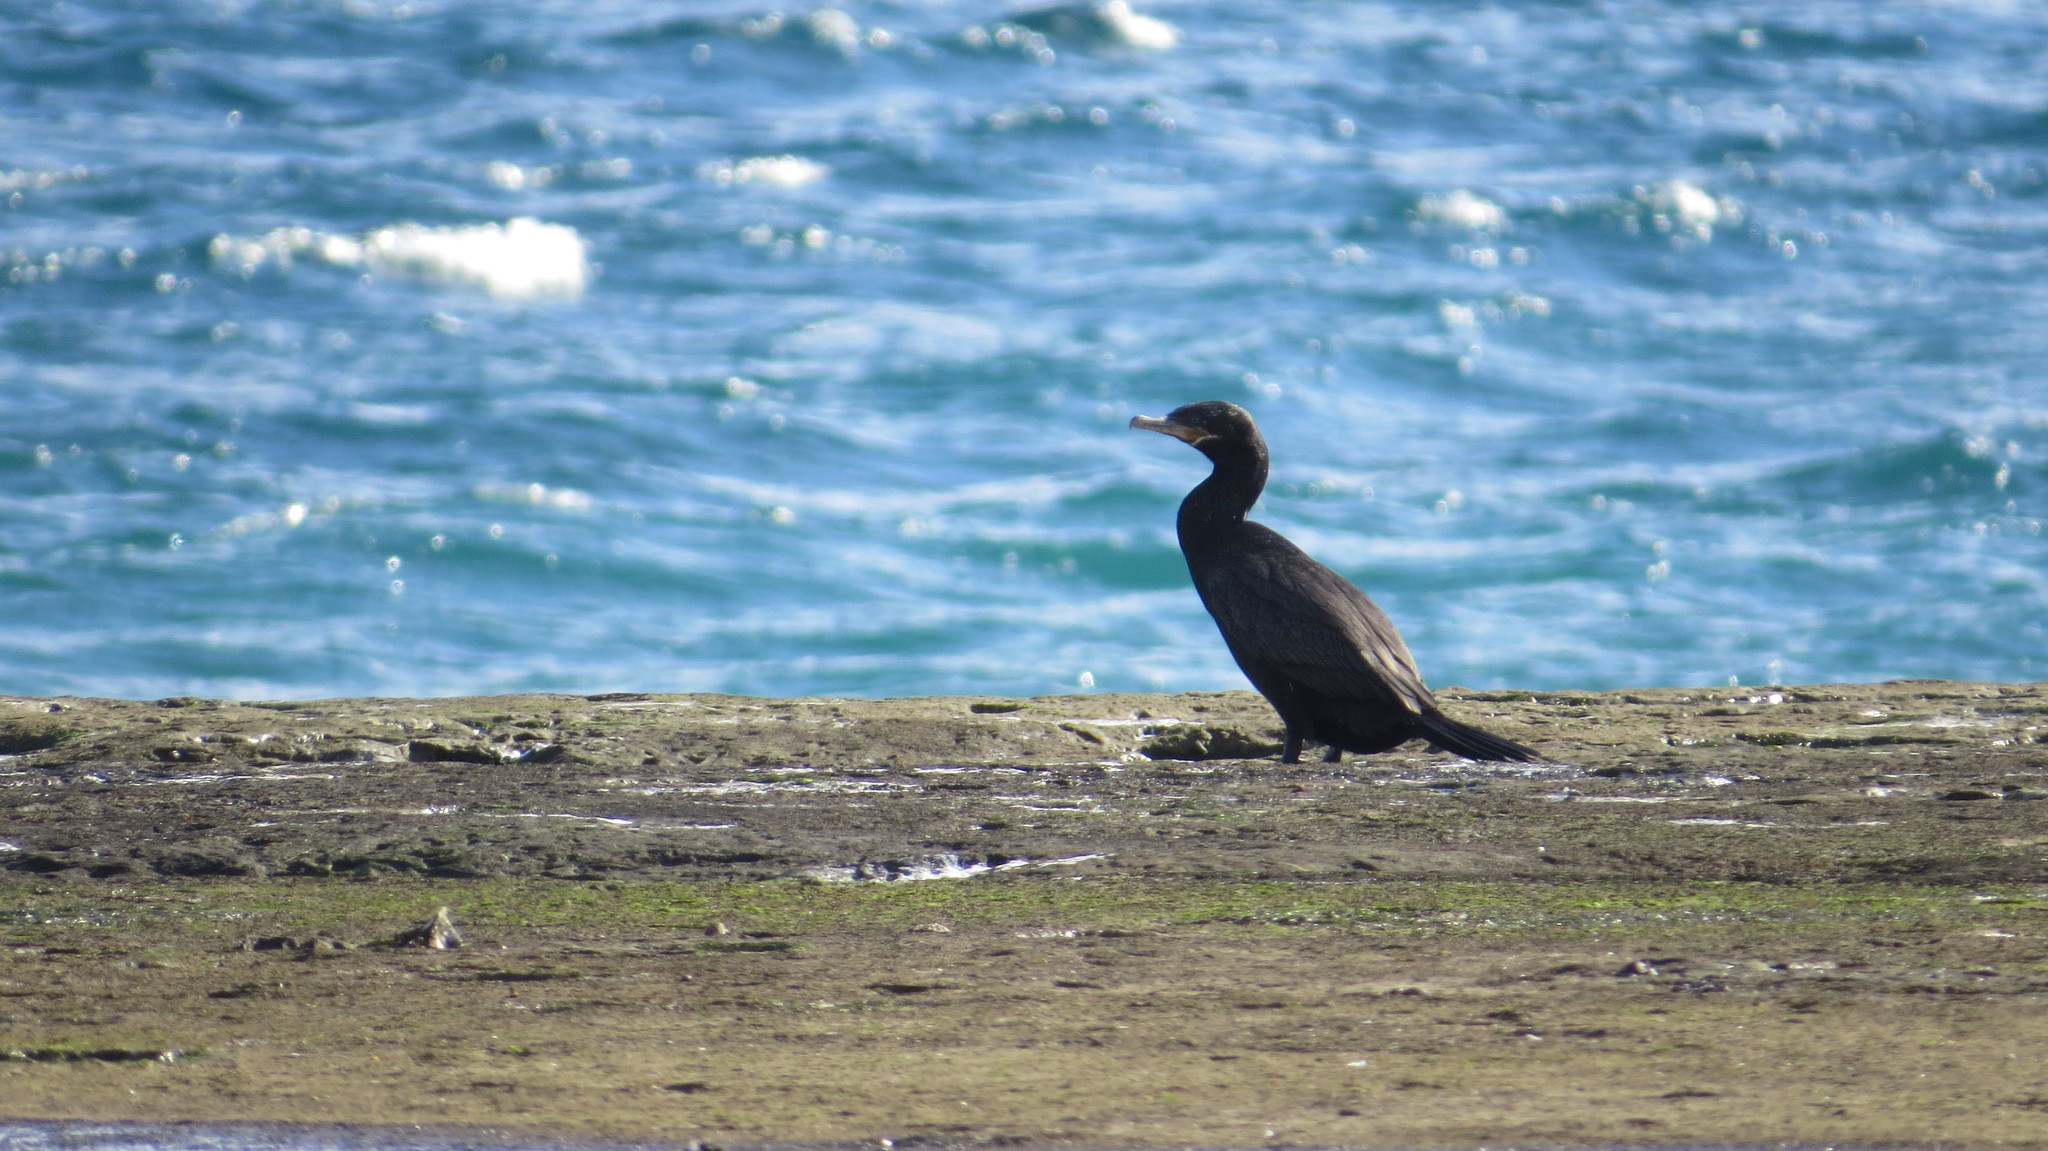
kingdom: Animalia
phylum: Chordata
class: Aves
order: Suliformes
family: Phalacrocoracidae
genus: Phalacrocorax
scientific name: Phalacrocorax brasilianus
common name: Neotropic cormorant
